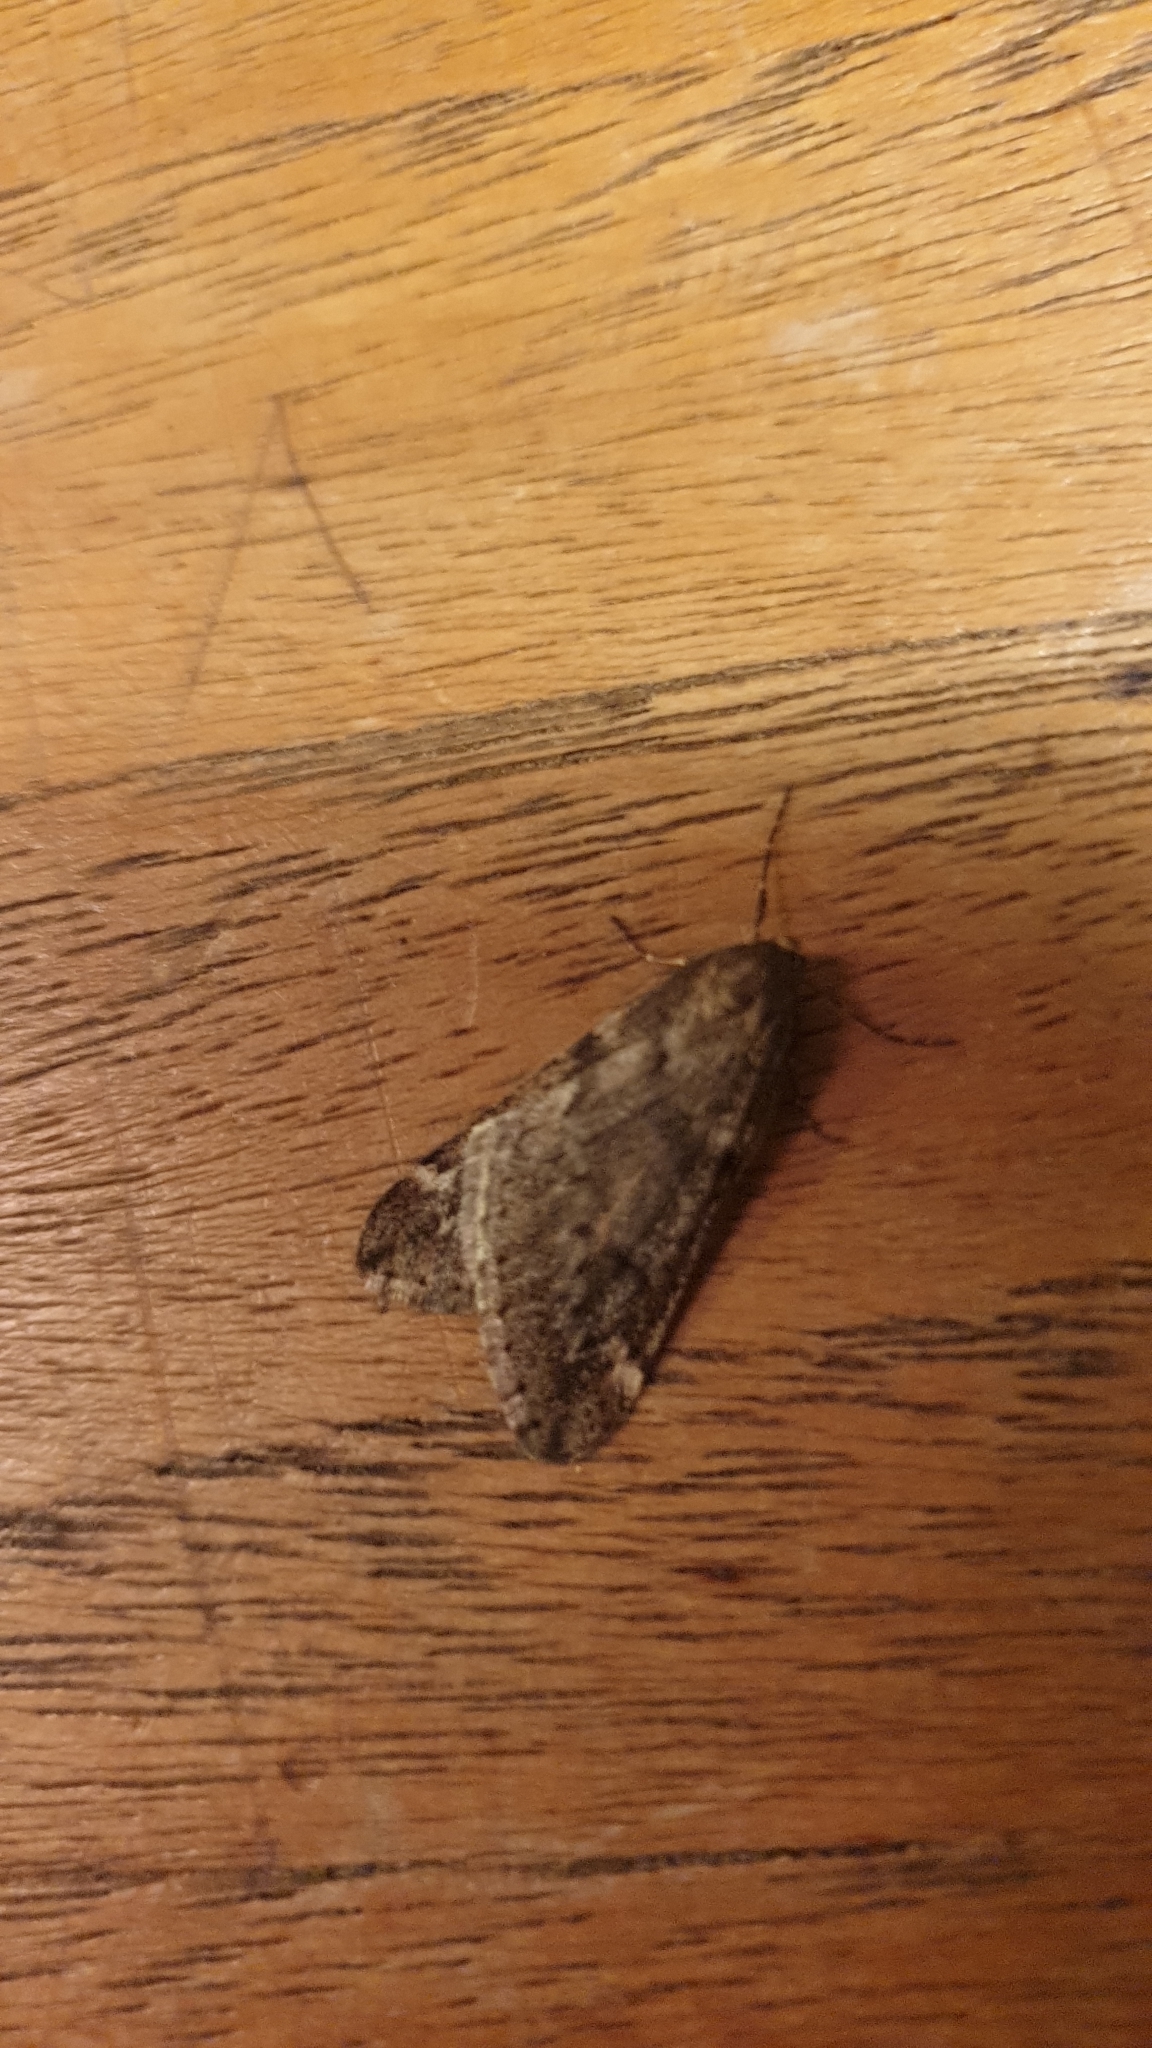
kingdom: Animalia
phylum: Arthropoda
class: Insecta
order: Lepidoptera
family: Geometridae
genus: Alsophila
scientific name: Alsophila aescularia
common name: March moth
